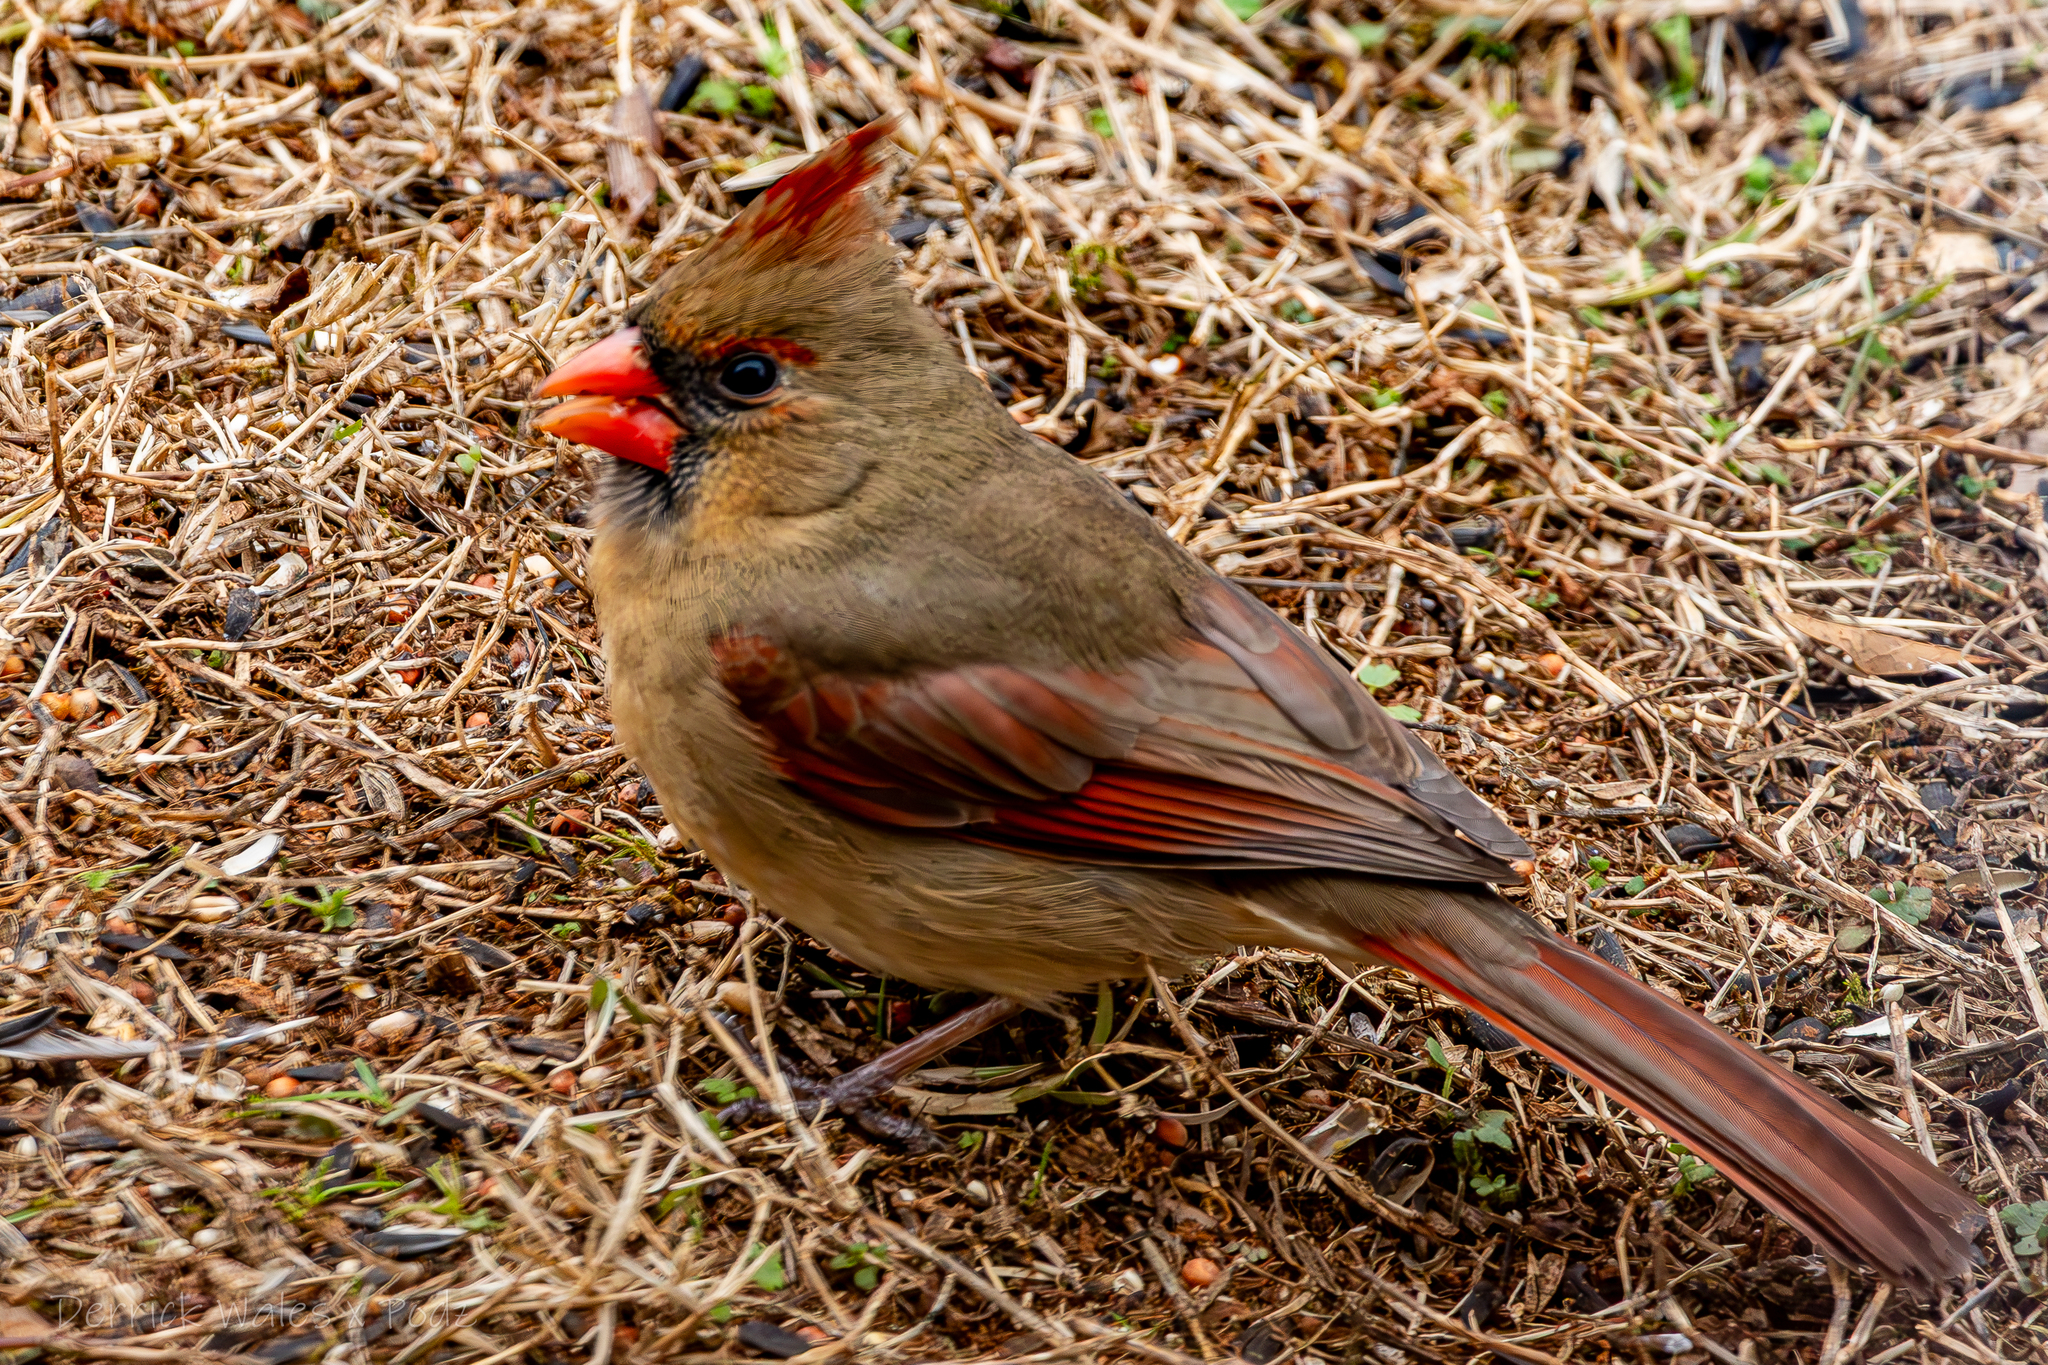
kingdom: Animalia
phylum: Chordata
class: Aves
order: Passeriformes
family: Cardinalidae
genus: Cardinalis
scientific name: Cardinalis cardinalis
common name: Northern cardinal
